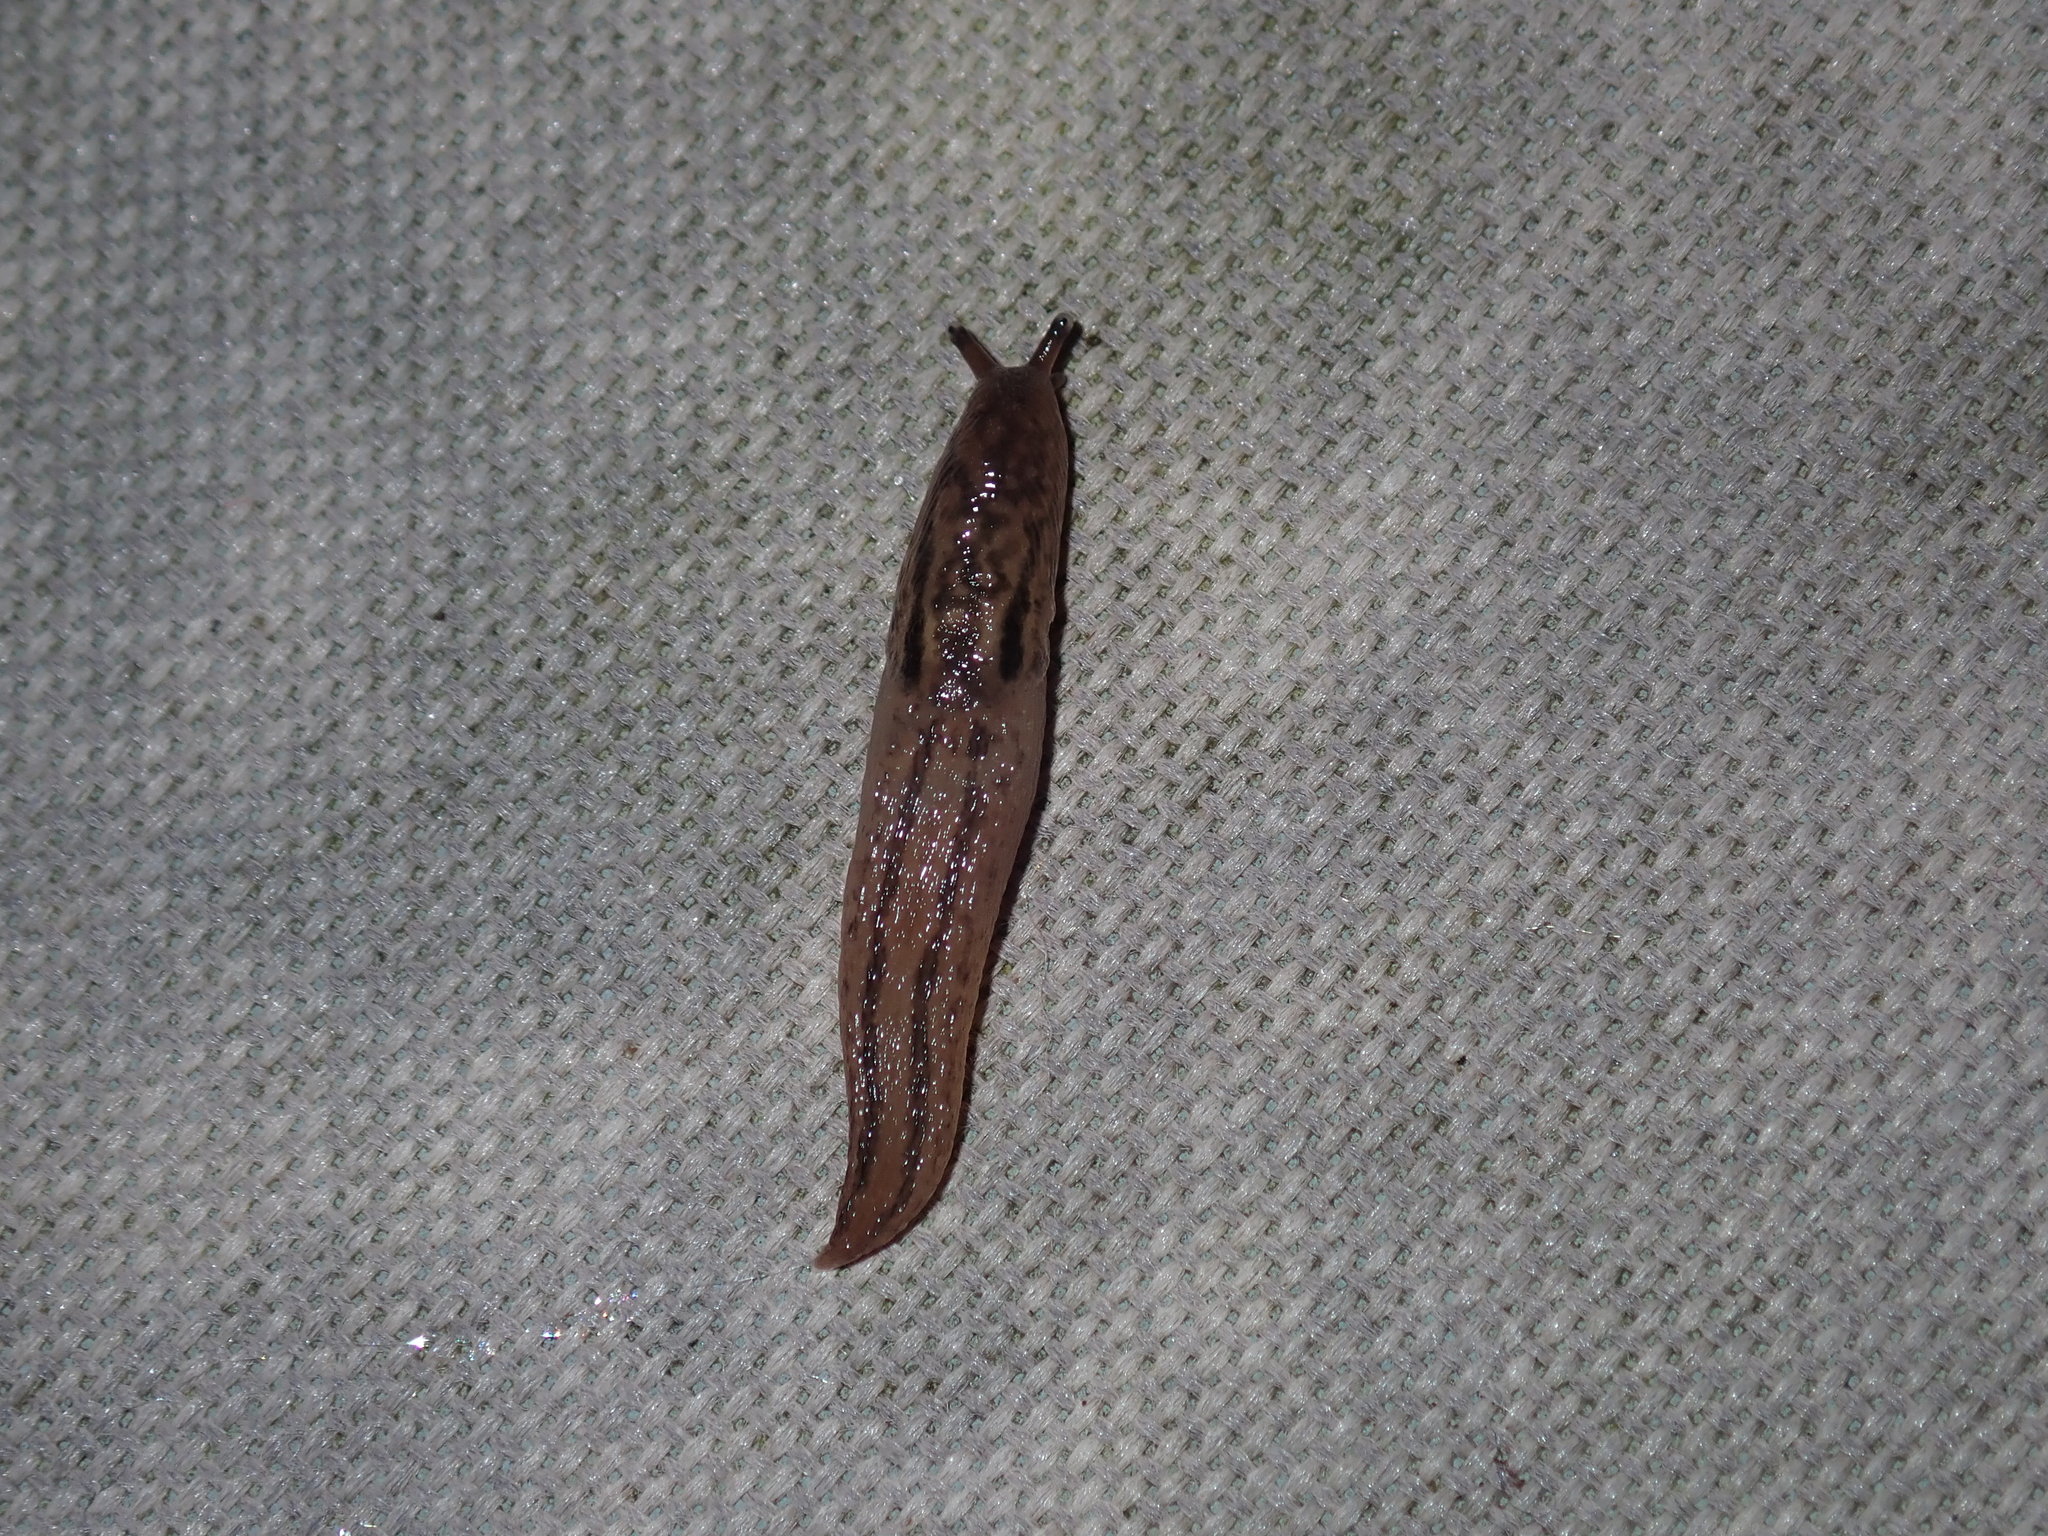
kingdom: Animalia
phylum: Mollusca
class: Gastropoda
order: Stylommatophora
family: Limacidae
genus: Ambigolimax
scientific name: Ambigolimax
